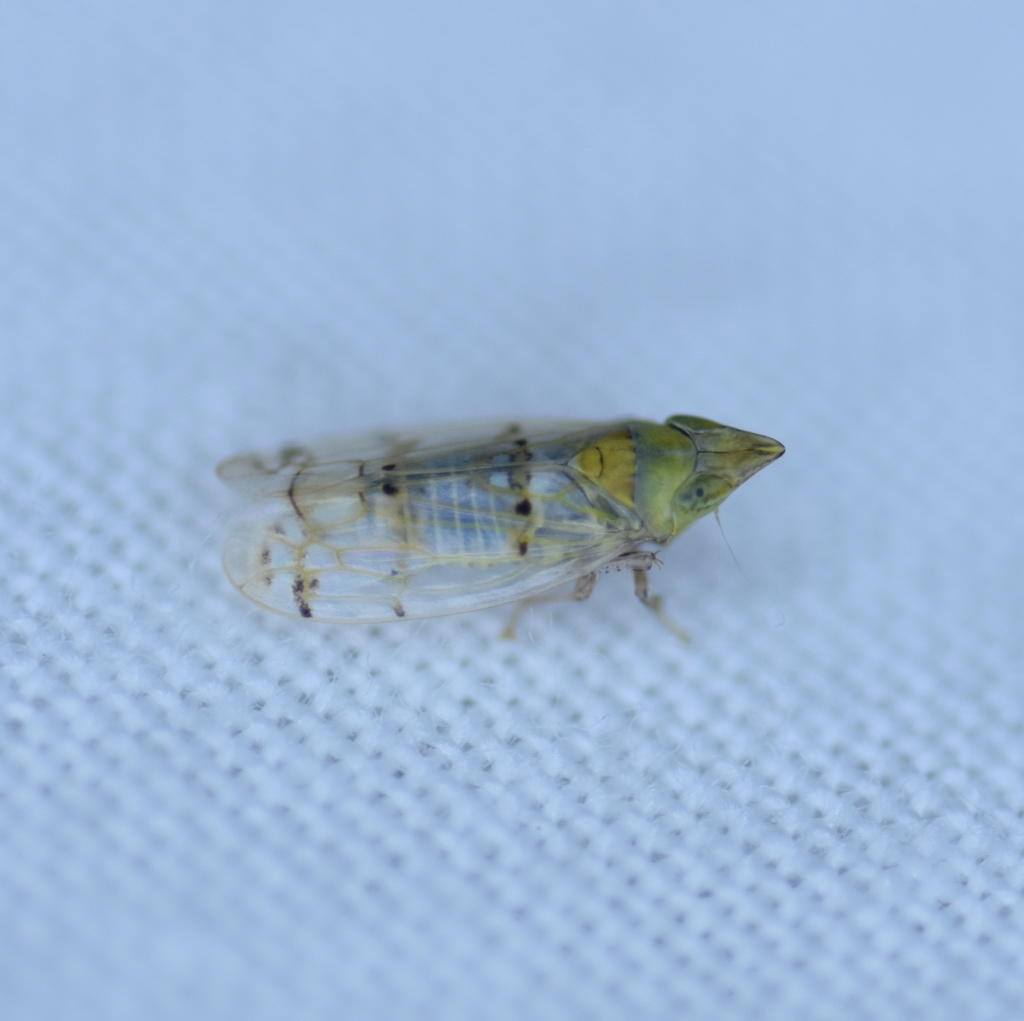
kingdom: Animalia
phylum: Arthropoda
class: Insecta
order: Hemiptera
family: Cicadellidae
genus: Japananus
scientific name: Japananus hyalinus
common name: The japanese maple leafhopper
